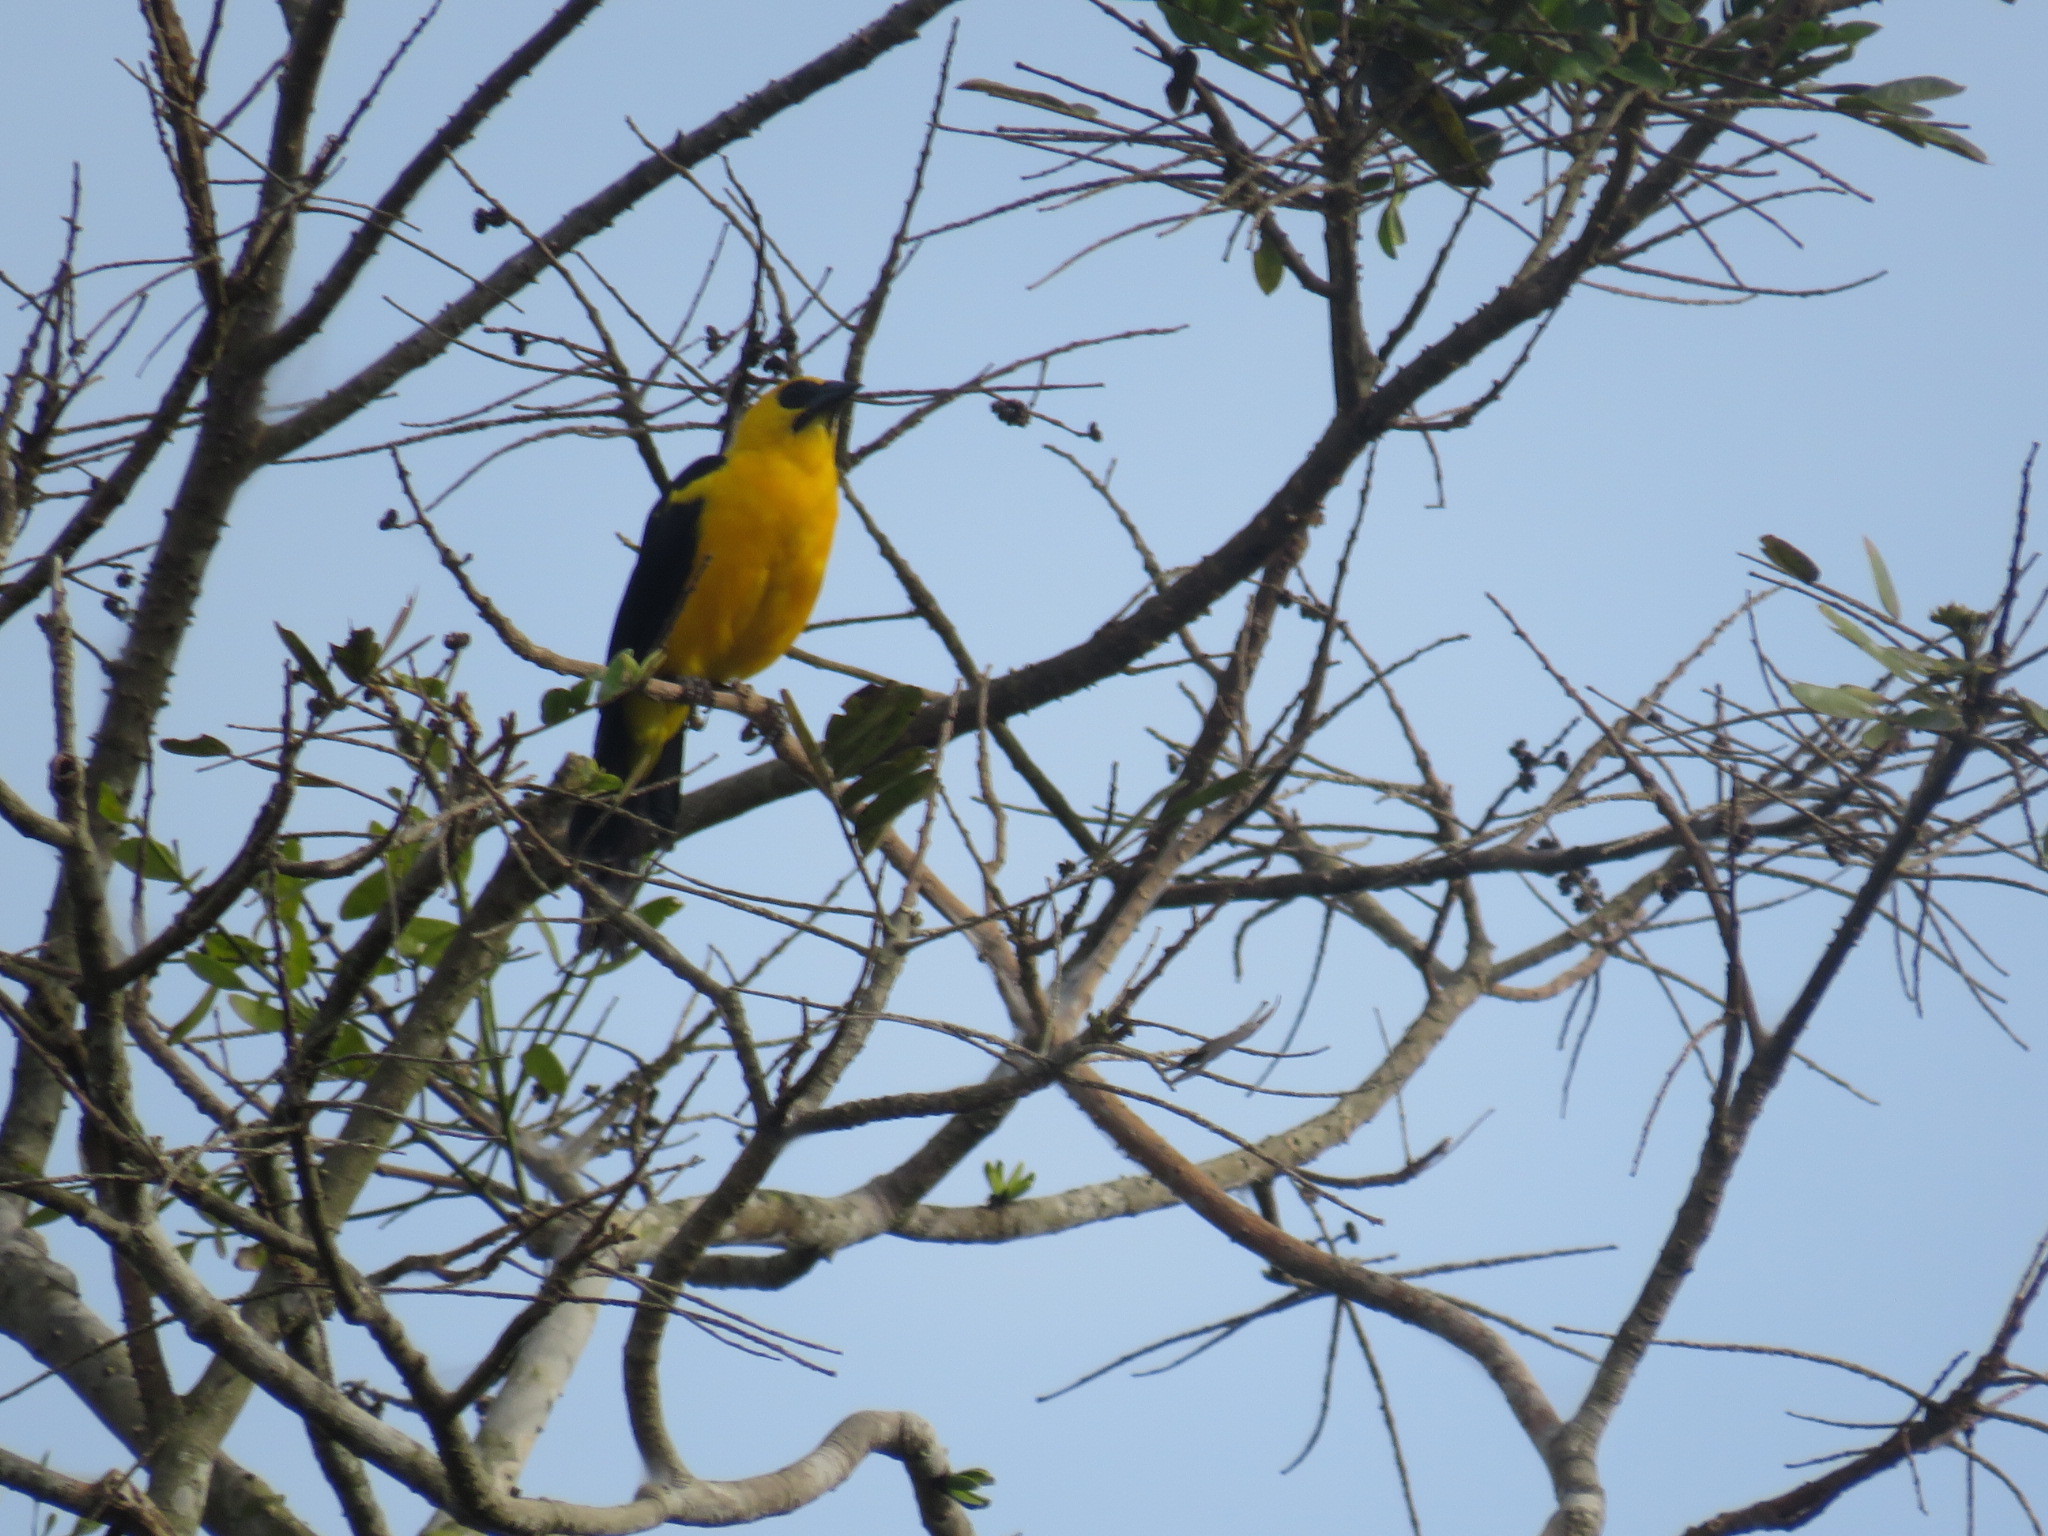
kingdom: Animalia
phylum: Chordata
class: Aves
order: Passeriformes
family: Icteridae
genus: Gymnomystax
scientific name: Gymnomystax mexicanus
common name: Oriole blackbird
